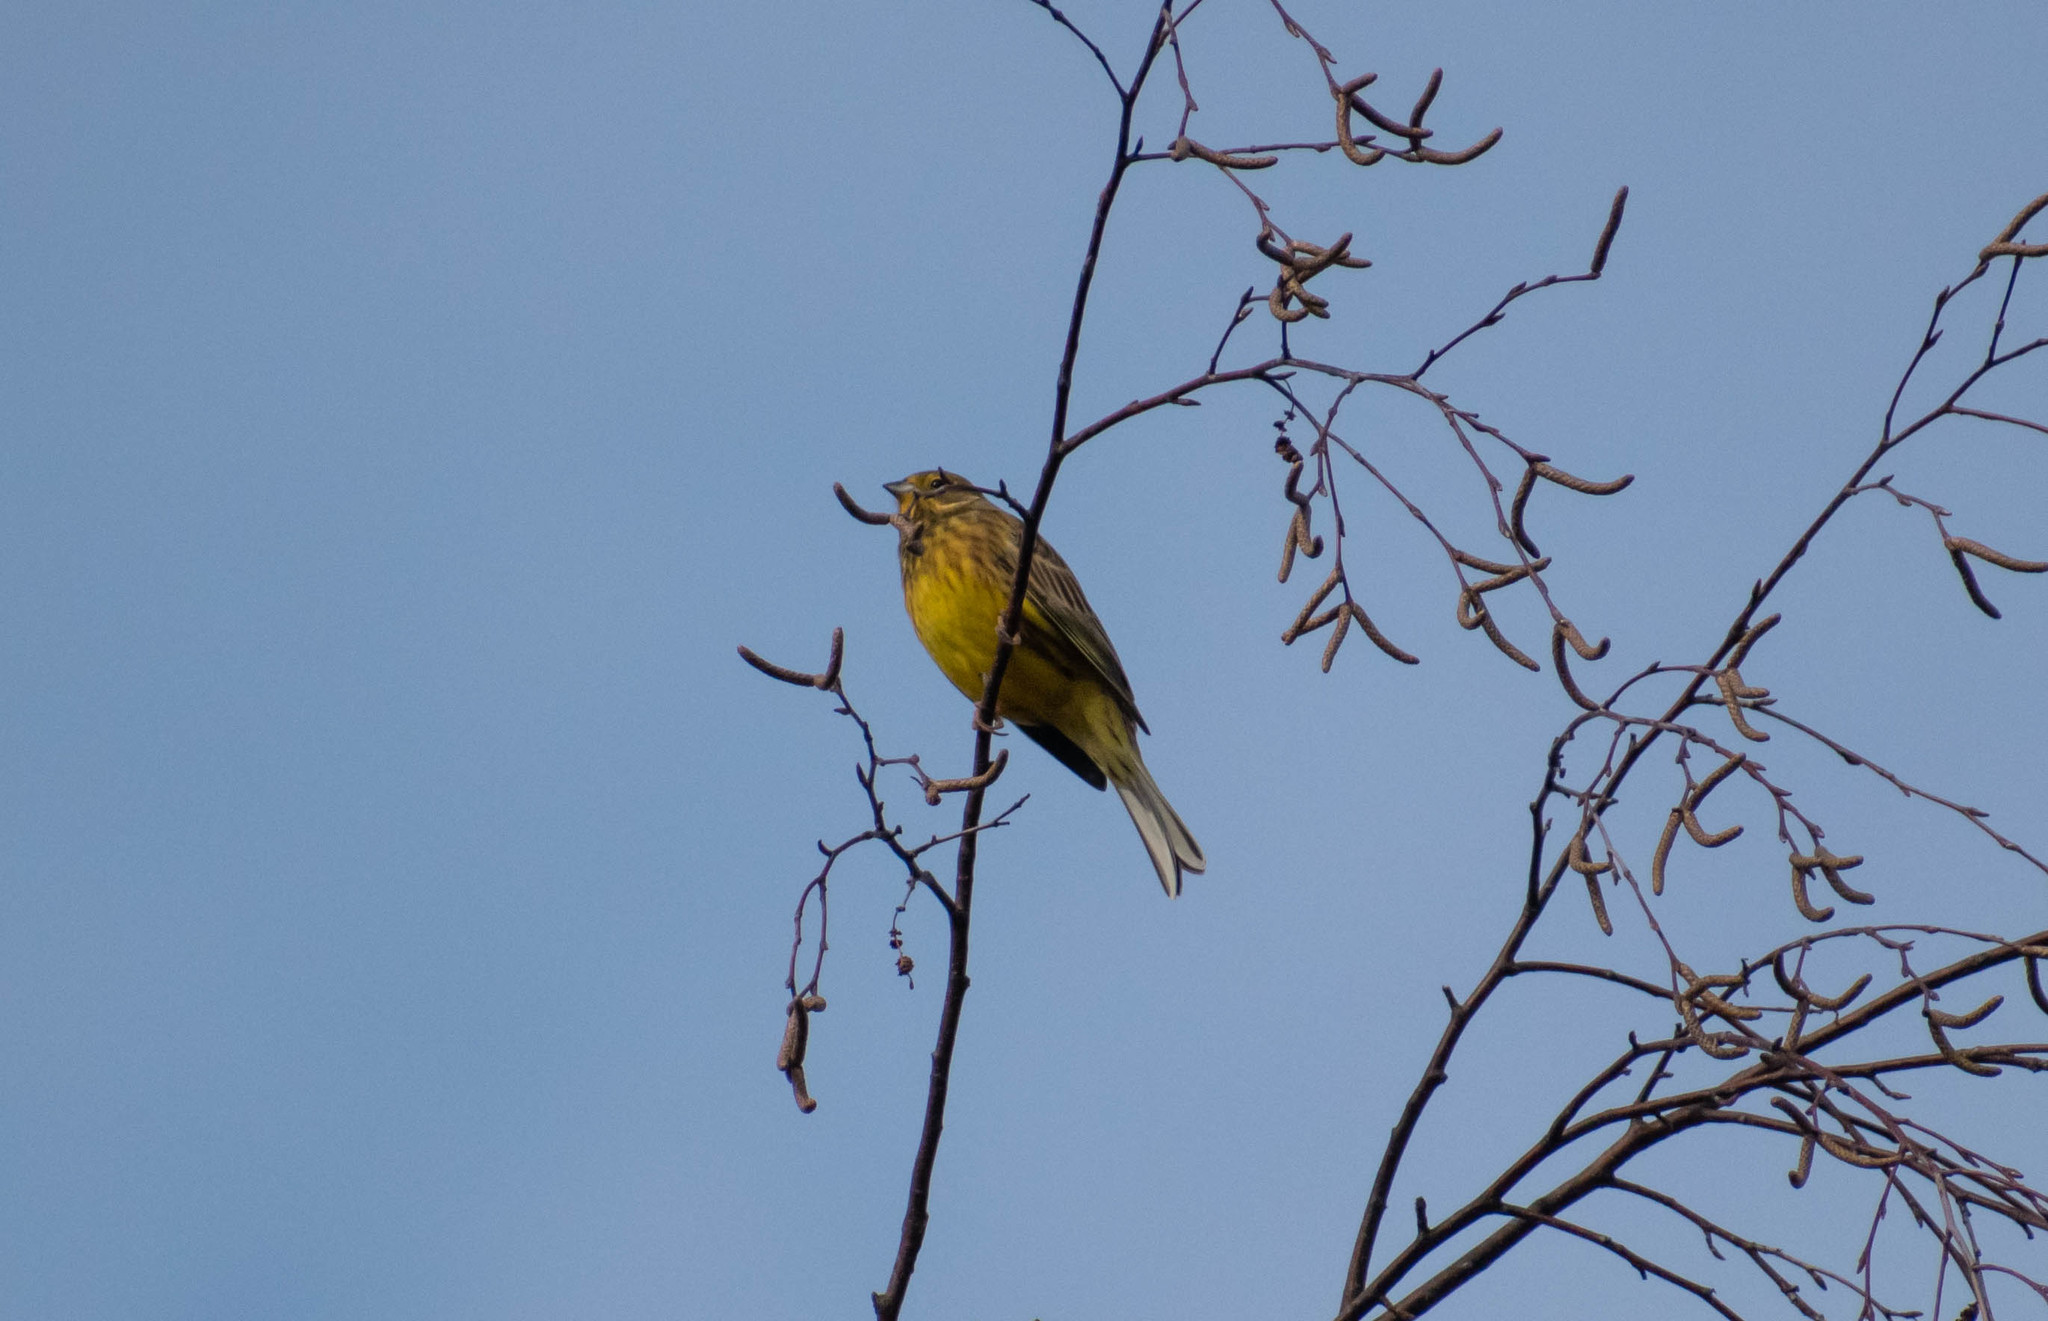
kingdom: Animalia
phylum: Chordata
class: Aves
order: Passeriformes
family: Emberizidae
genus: Emberiza
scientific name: Emberiza citrinella
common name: Yellowhammer
